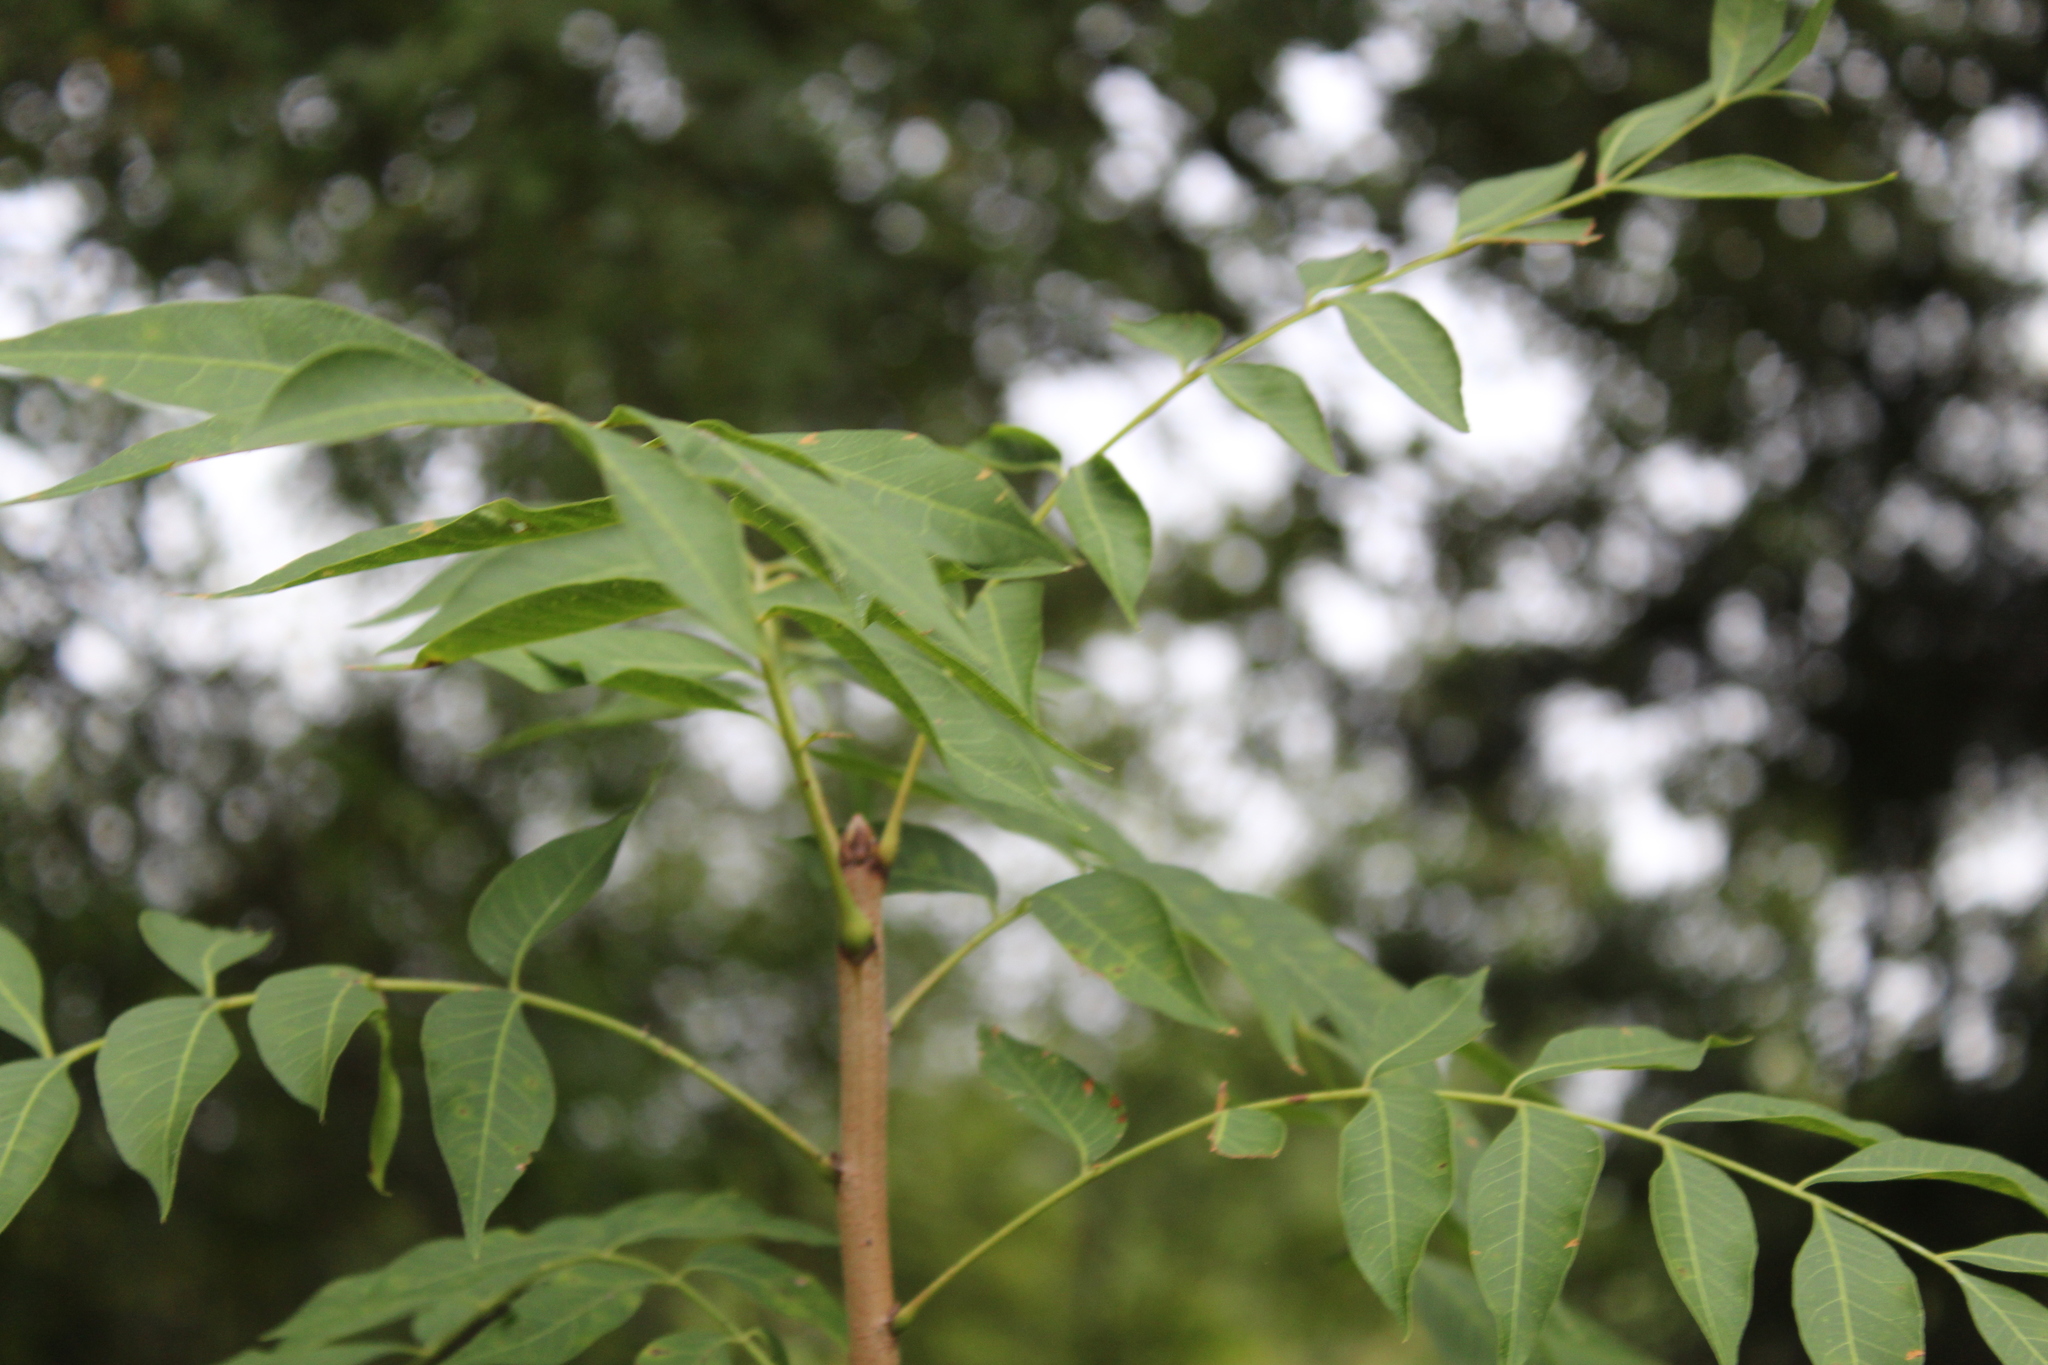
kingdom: Plantae
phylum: Tracheophyta
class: Magnoliopsida
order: Sapindales
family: Anacardiaceae
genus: Pistacia
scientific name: Pistacia chinensis
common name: Chinese pistache
